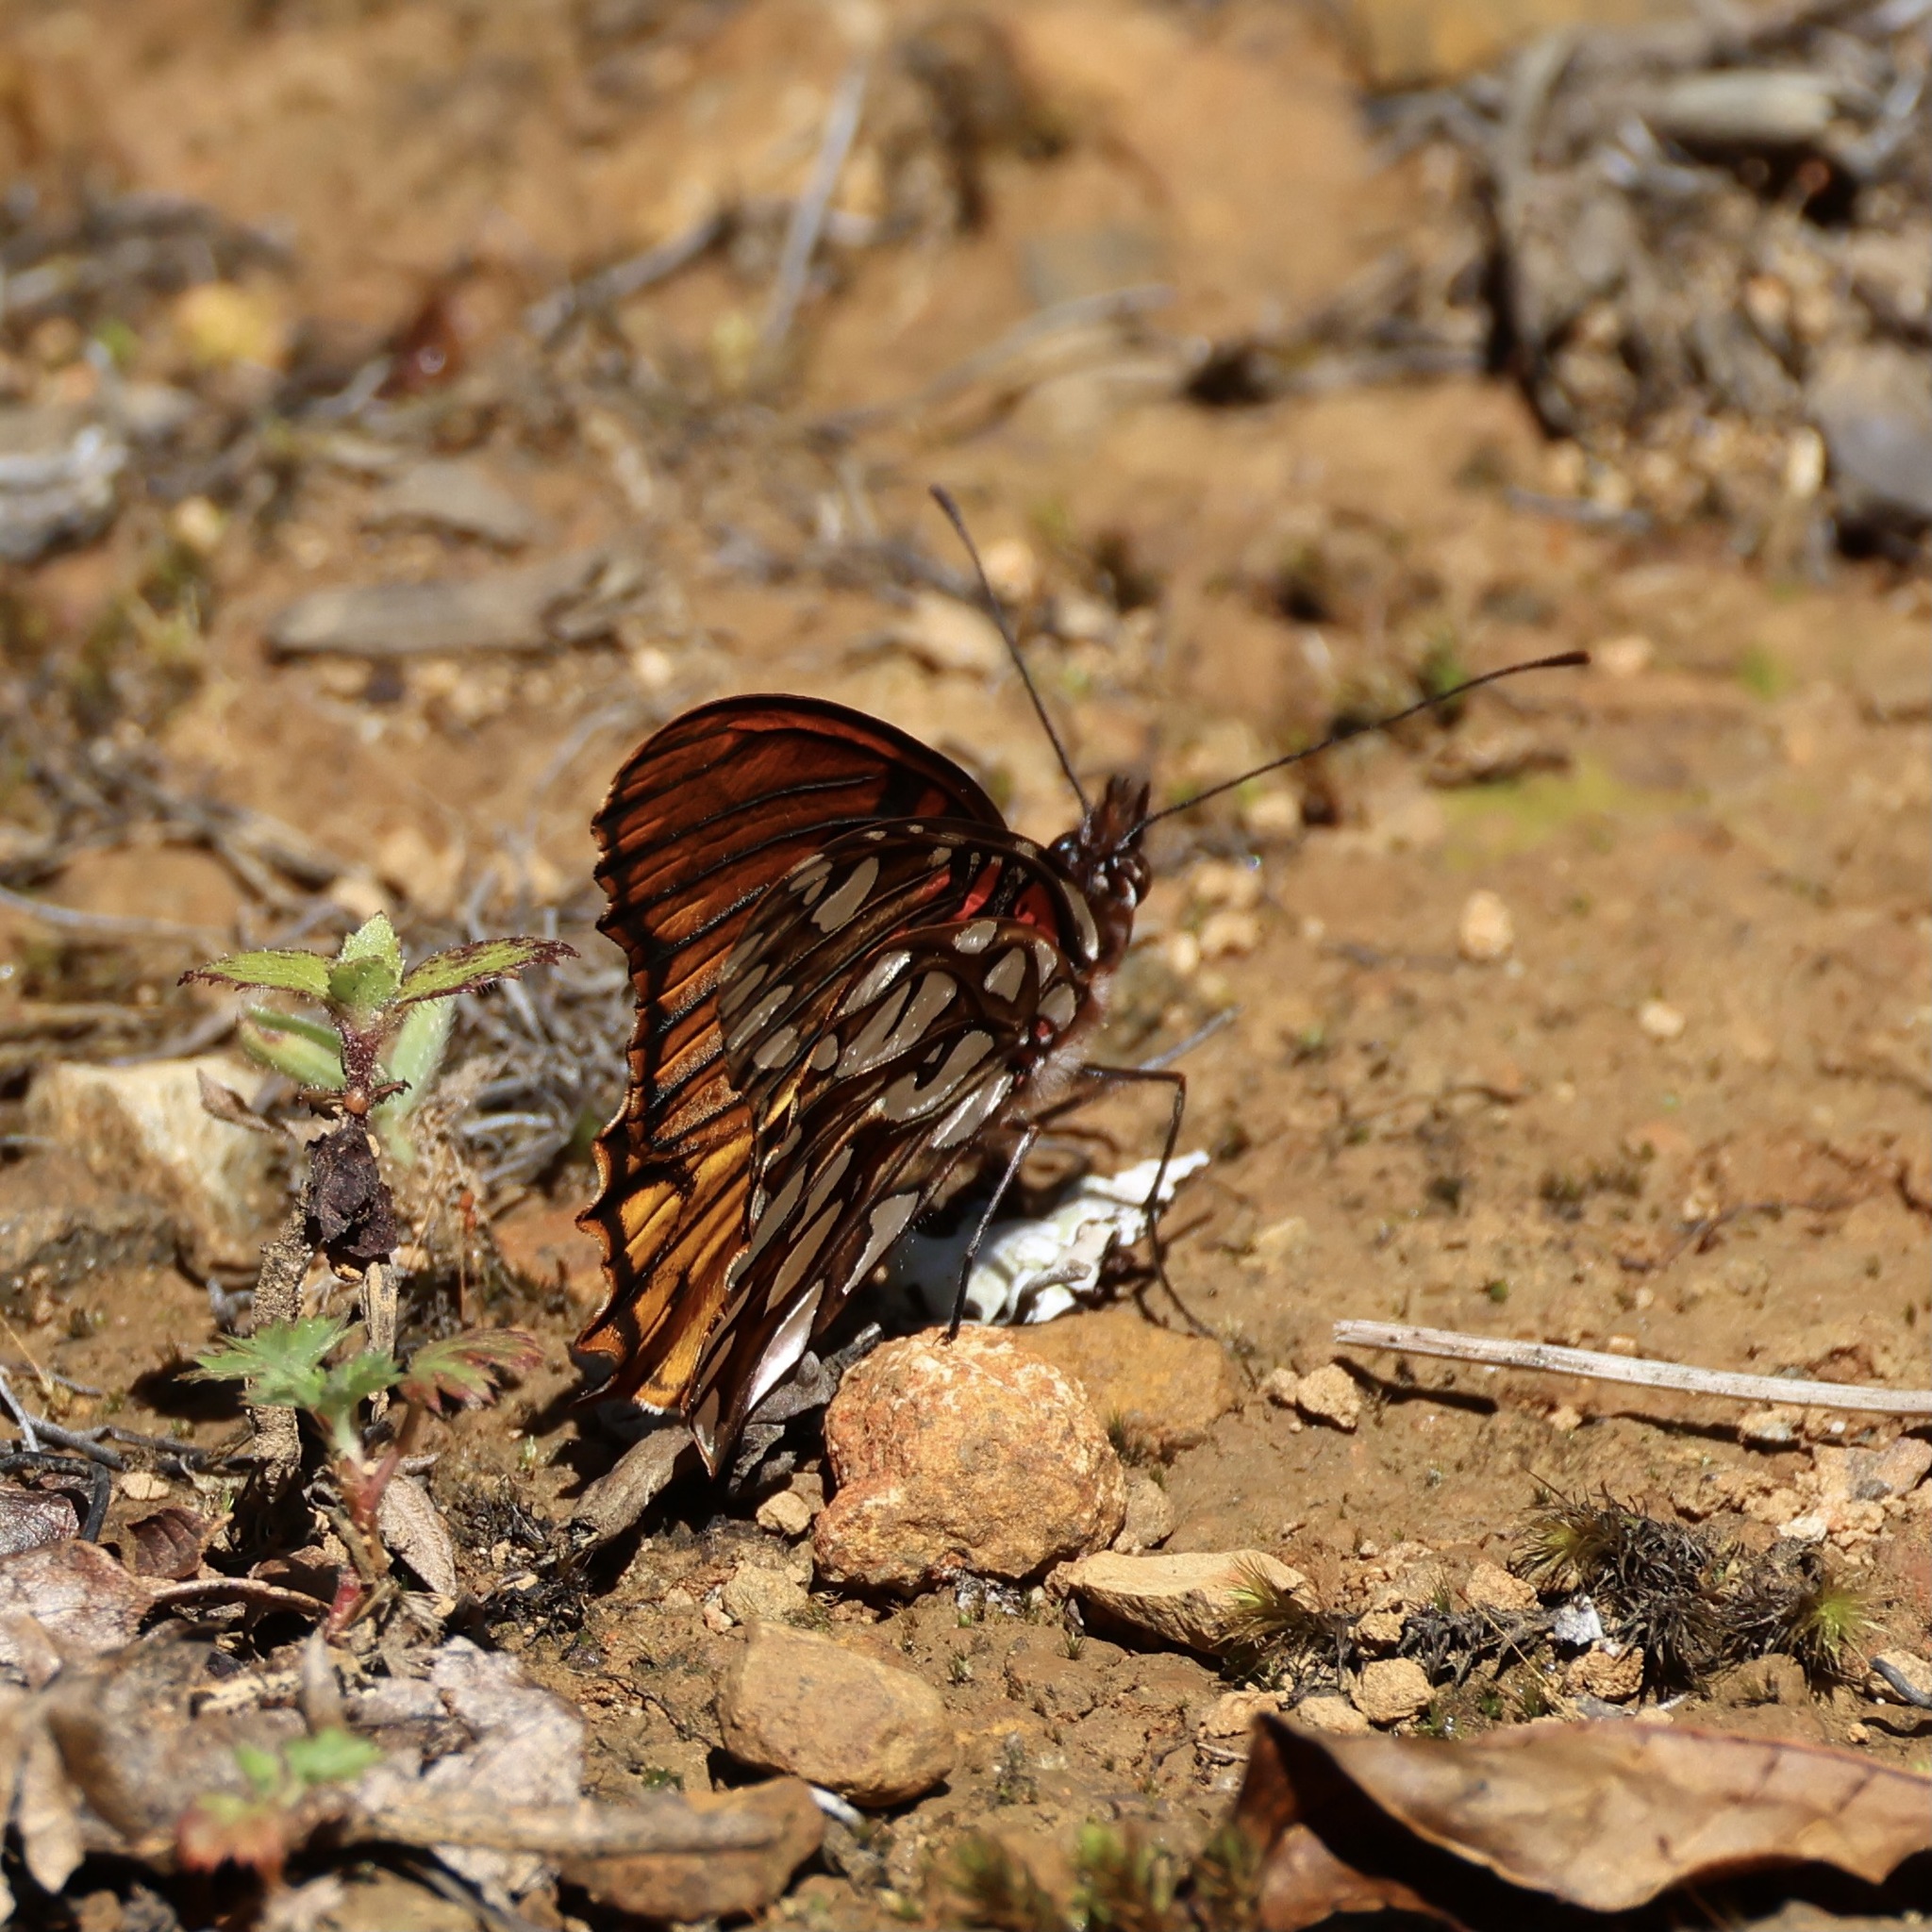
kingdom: Animalia
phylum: Arthropoda
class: Insecta
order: Lepidoptera
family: Nymphalidae
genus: Dione
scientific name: Dione moneta
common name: Mexican silverspot
